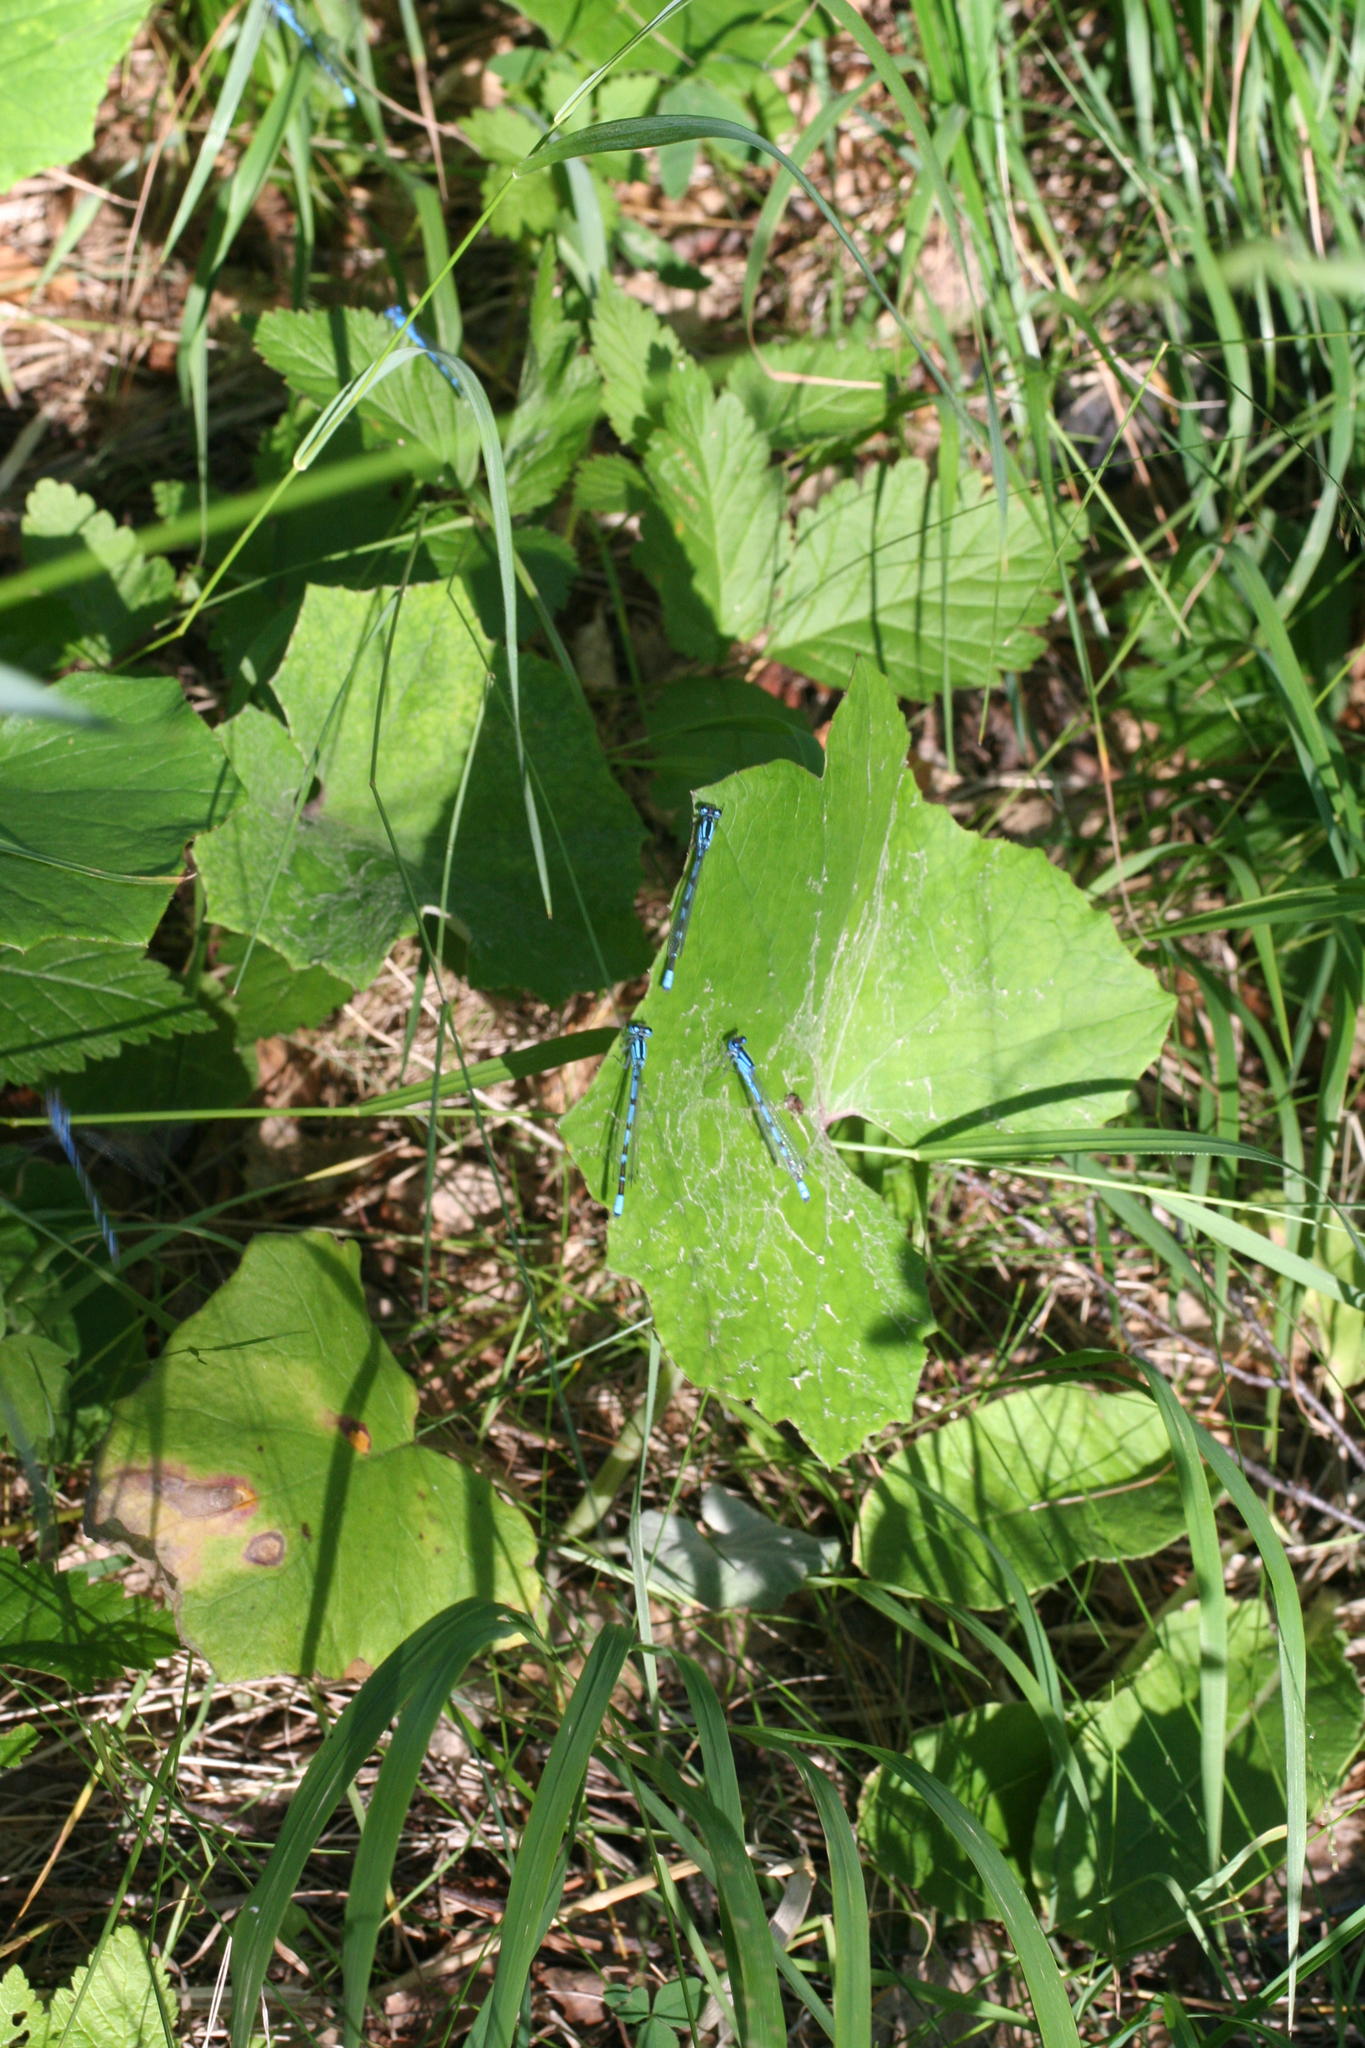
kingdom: Animalia
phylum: Arthropoda
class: Insecta
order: Odonata
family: Coenagrionidae
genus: Enallagma
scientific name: Enallagma cyathigerum
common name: Common blue damselfly
